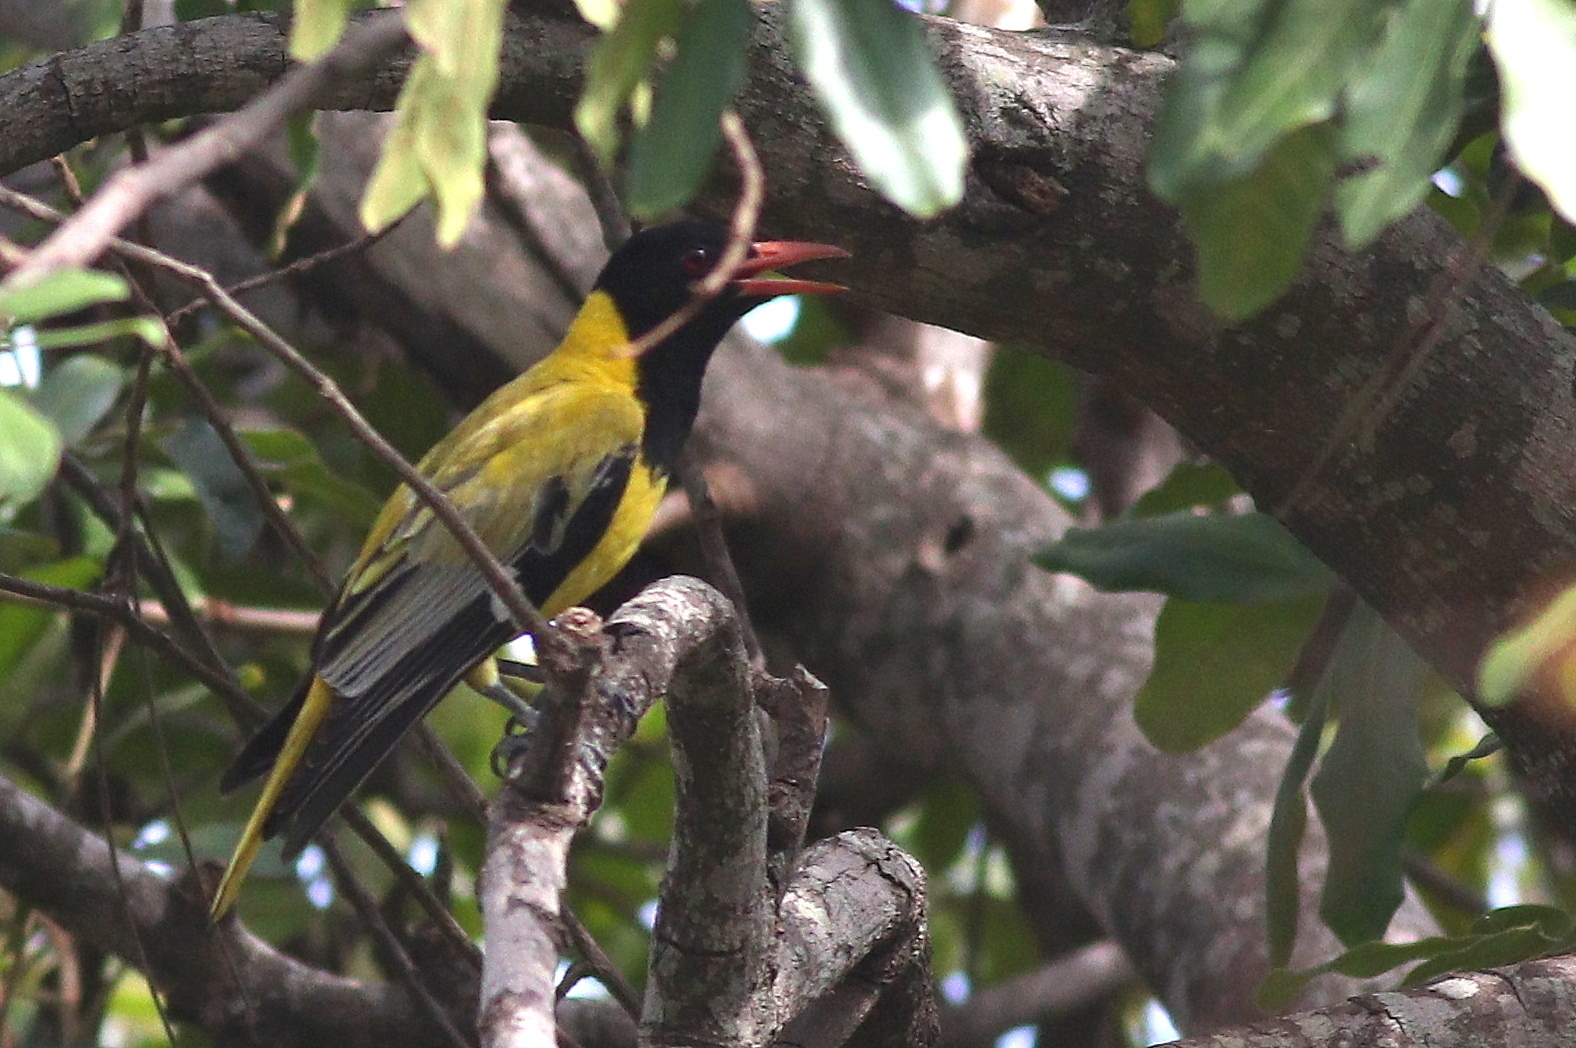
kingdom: Animalia
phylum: Chordata
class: Aves
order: Passeriformes
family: Oriolidae
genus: Oriolus
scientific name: Oriolus larvatus
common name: Black-headed oriole
